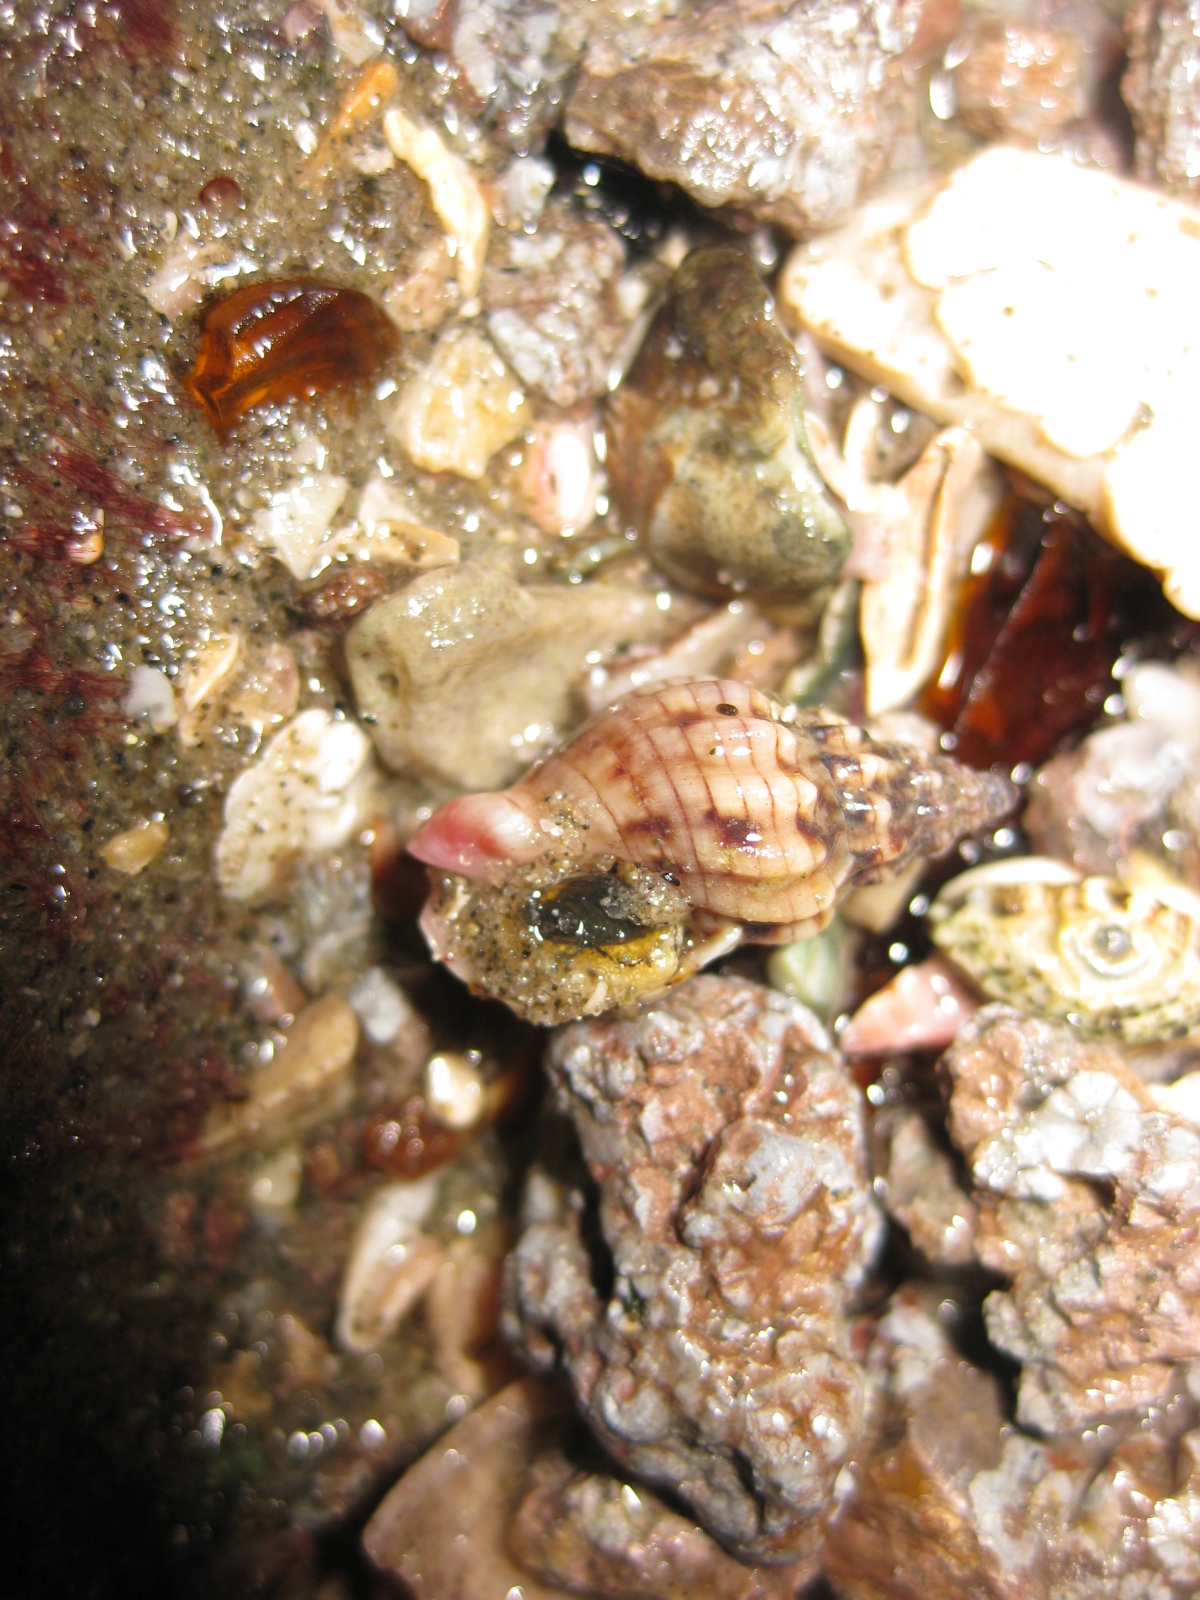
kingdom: Animalia
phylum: Mollusca
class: Gastropoda
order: Neogastropoda
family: Cominellidae
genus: Cominella
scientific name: Cominella quoyana
